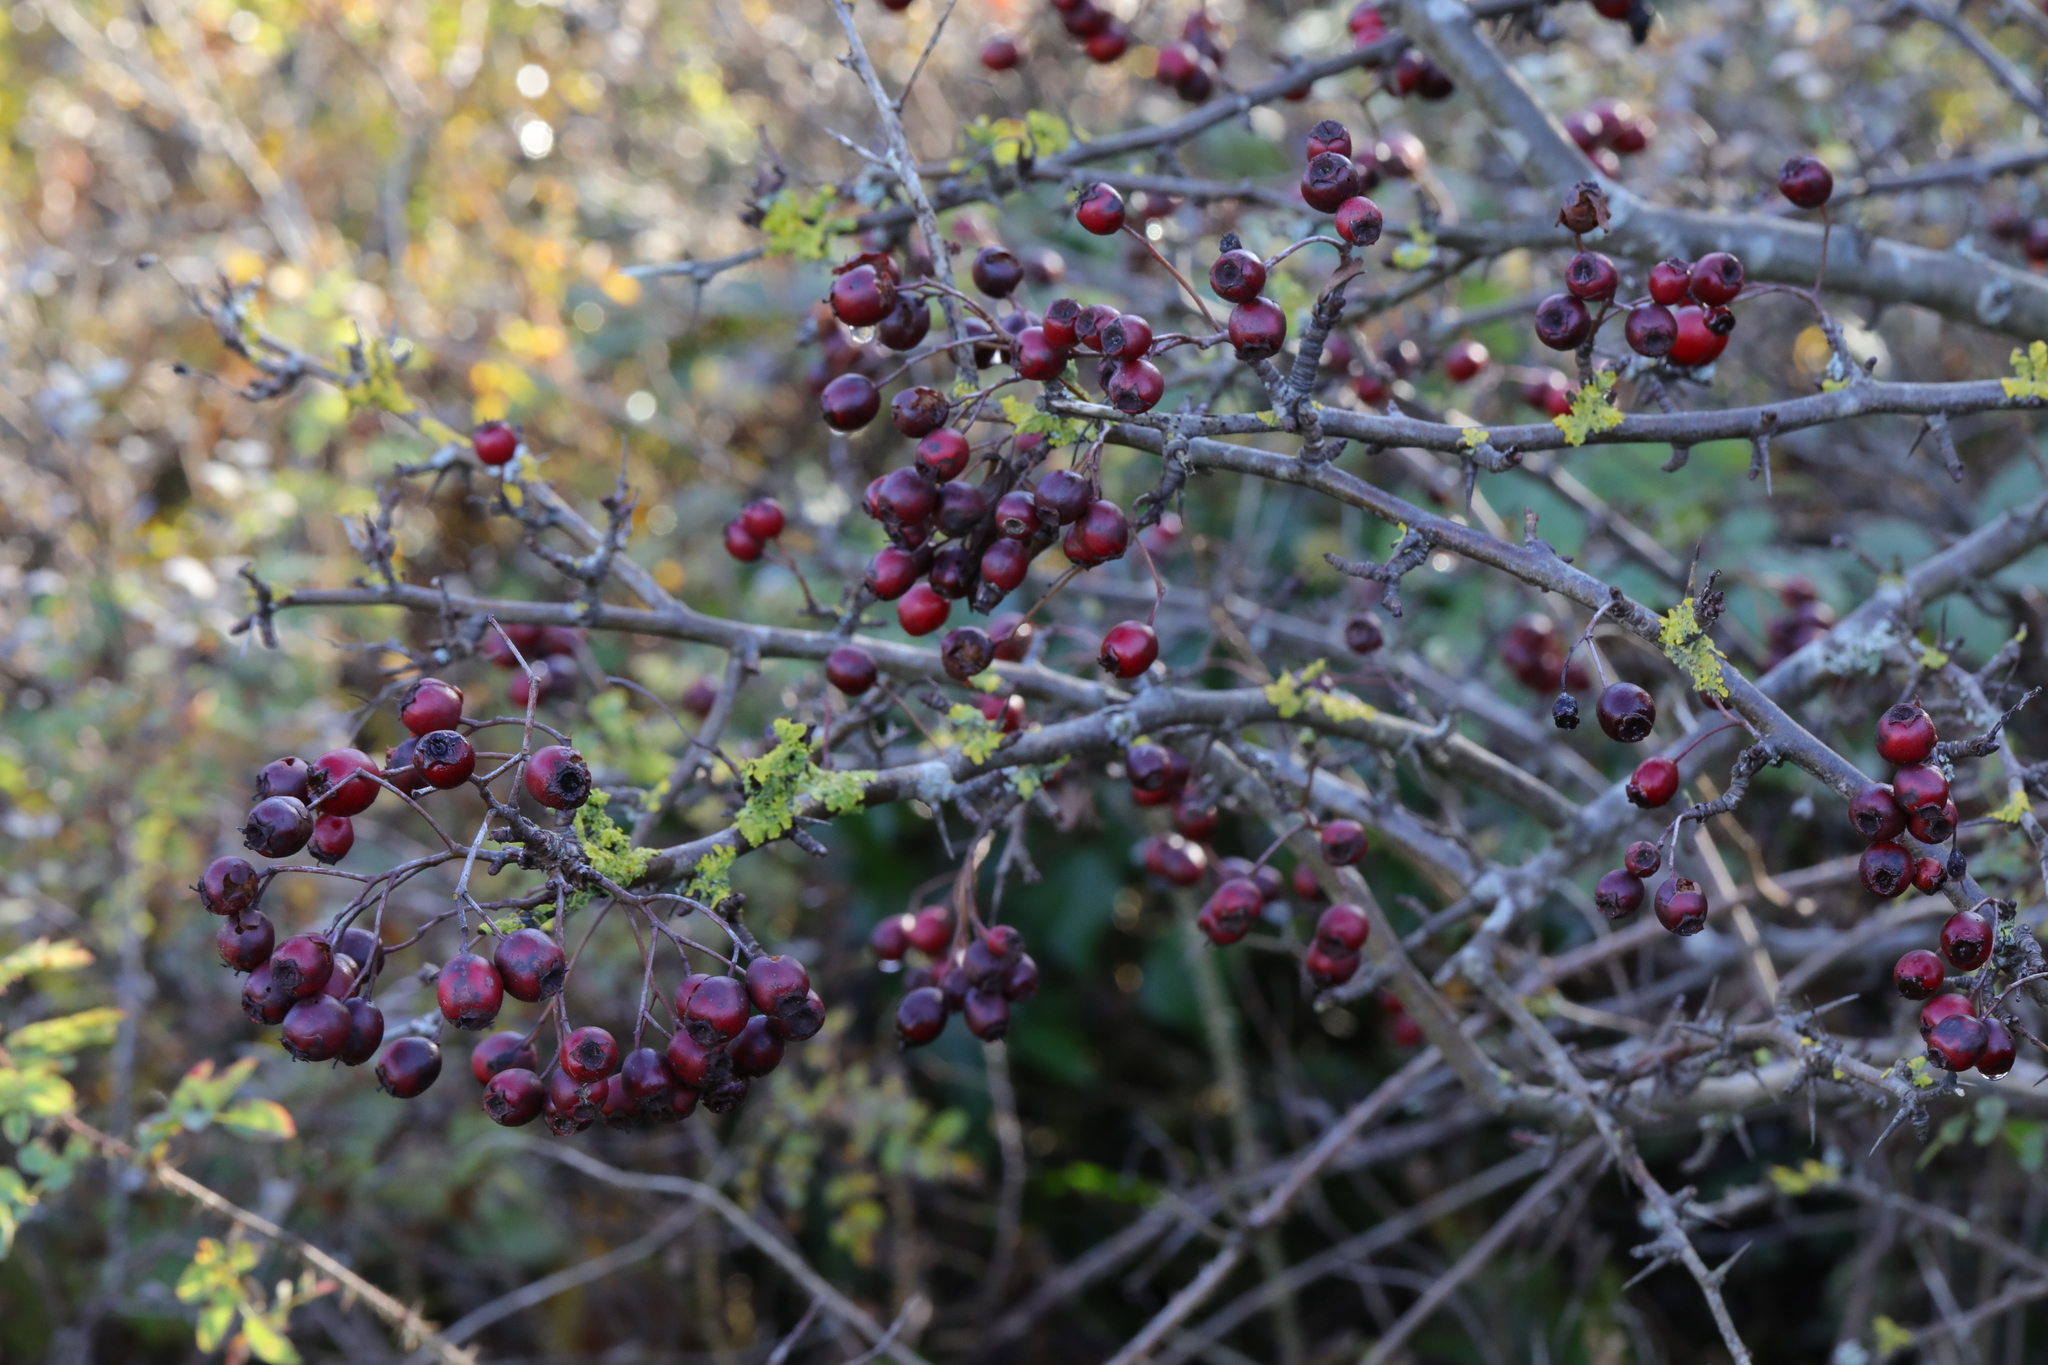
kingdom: Plantae
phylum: Tracheophyta
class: Magnoliopsida
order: Rosales
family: Rosaceae
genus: Crataegus
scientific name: Crataegus monogyna
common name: Hawthorn
